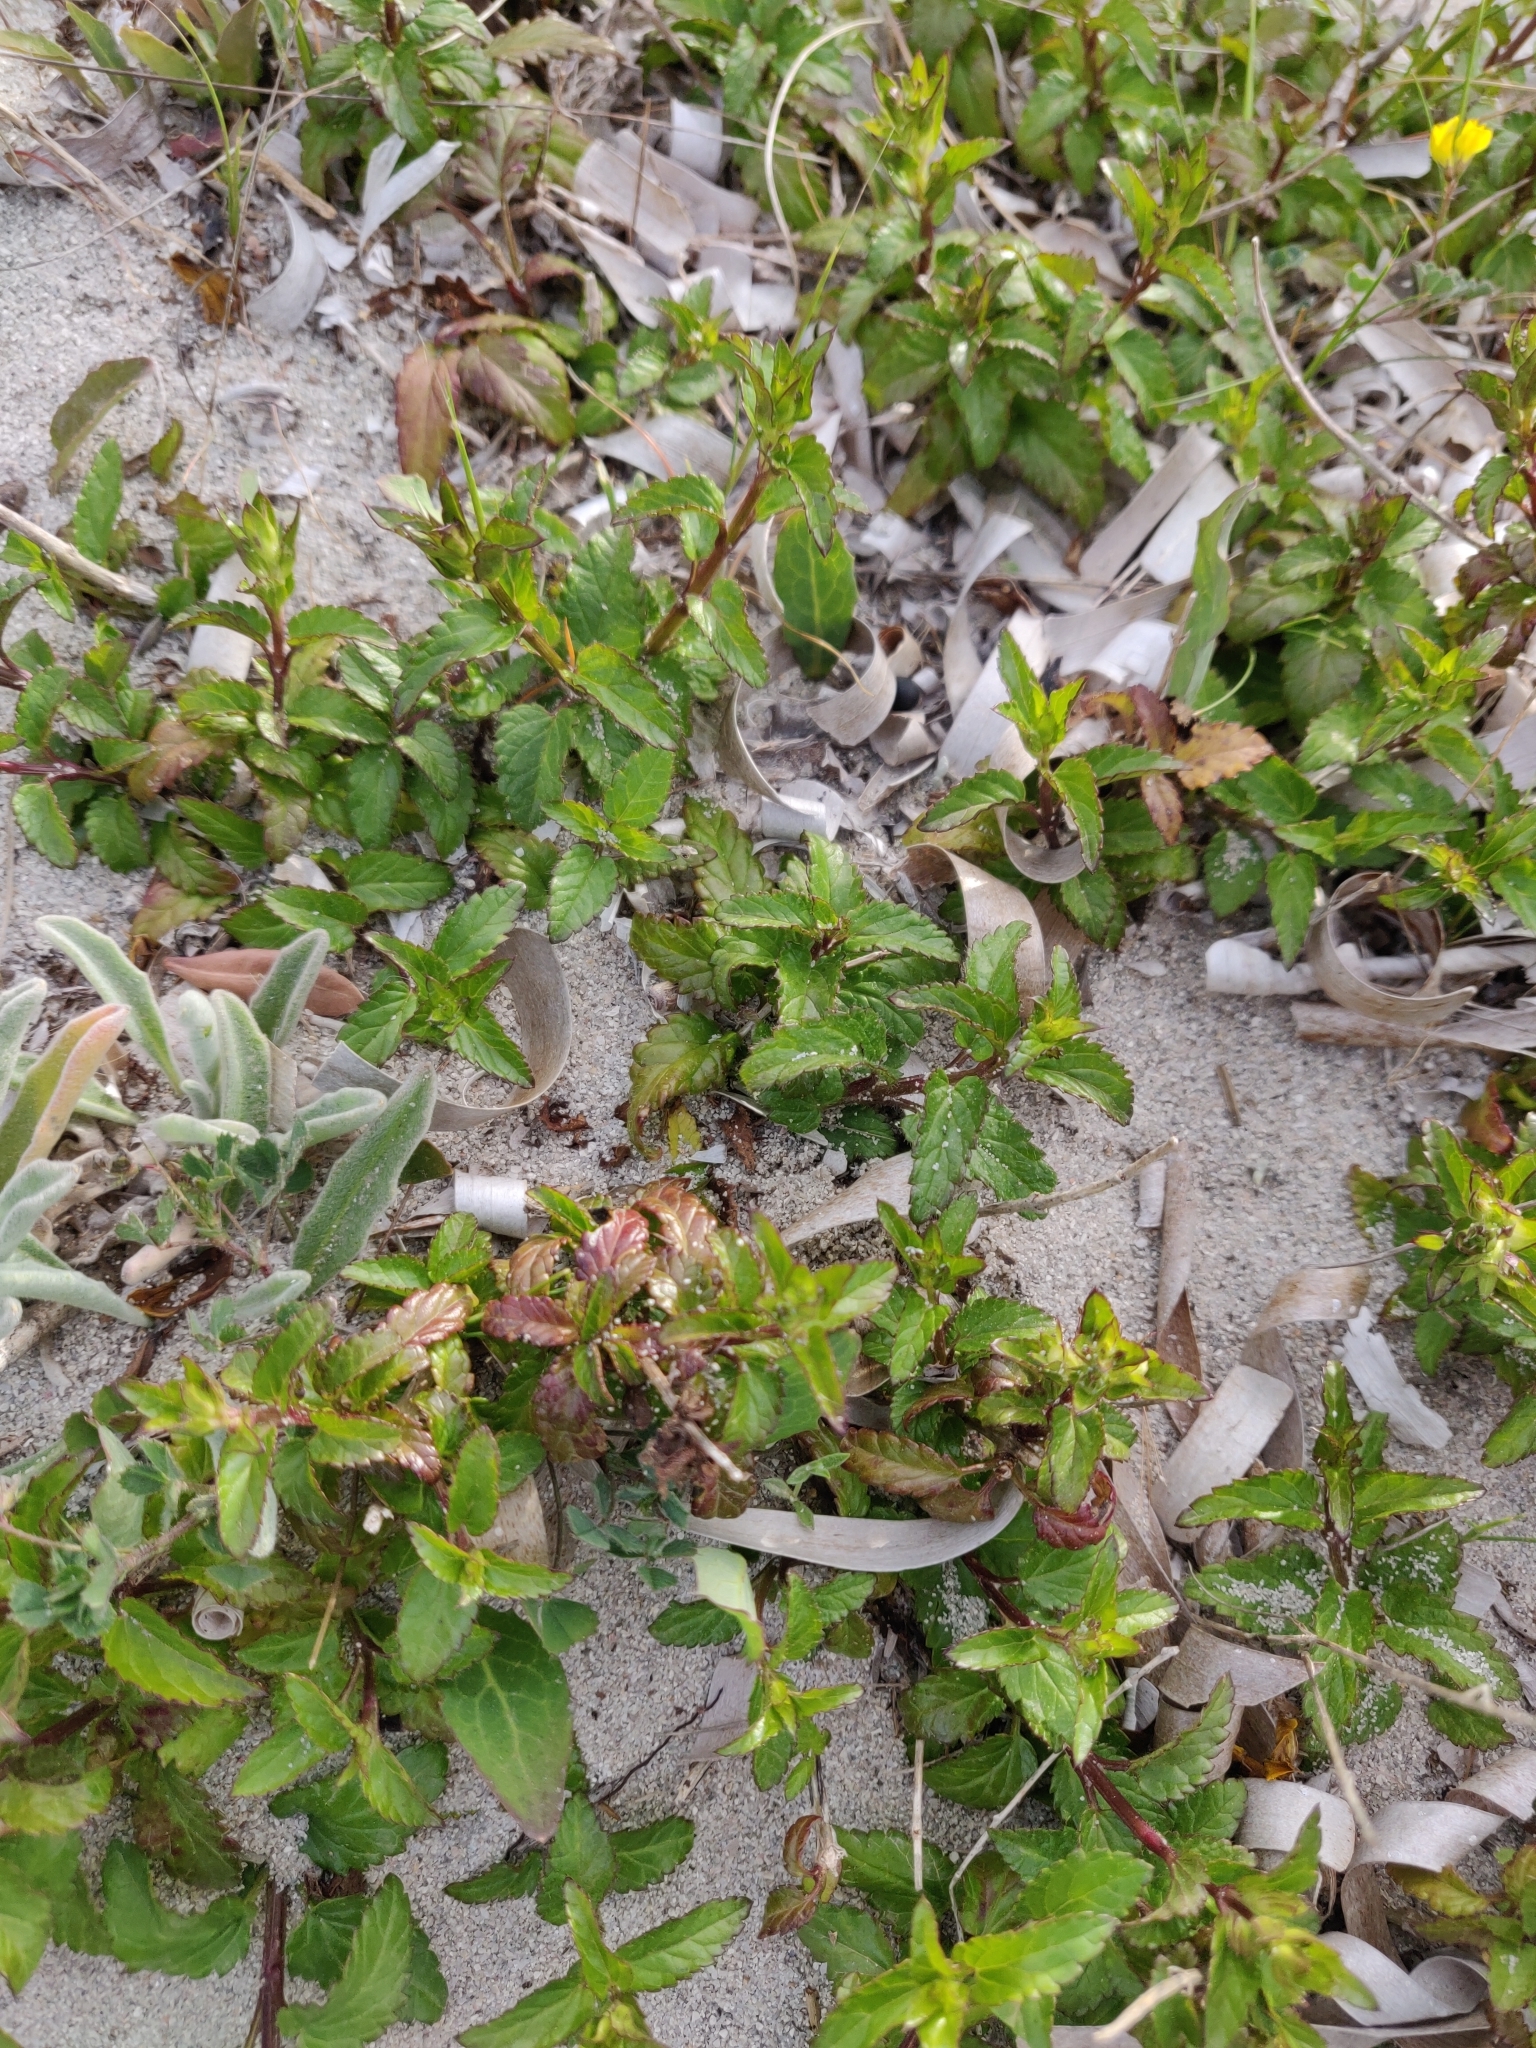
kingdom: Plantae
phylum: Tracheophyta
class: Magnoliopsida
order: Lamiales
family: Lamiaceae
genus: Prasium
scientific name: Prasium majus
